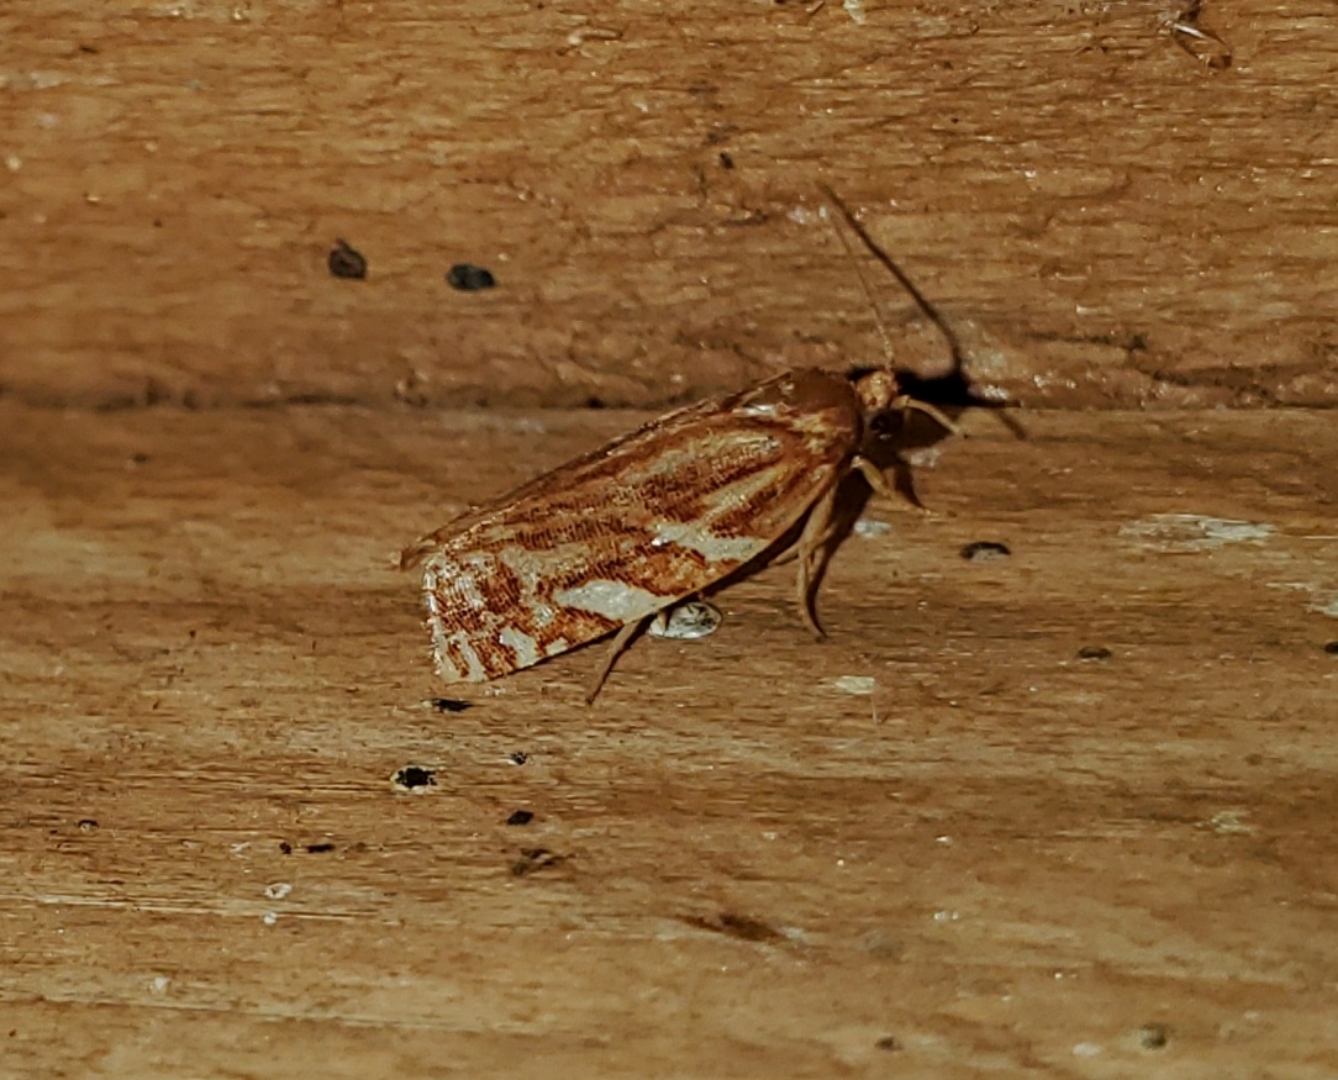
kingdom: Animalia
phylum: Arthropoda
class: Insecta
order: Lepidoptera
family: Tortricidae
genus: Choristoneura
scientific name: Choristoneura argentifasciata
